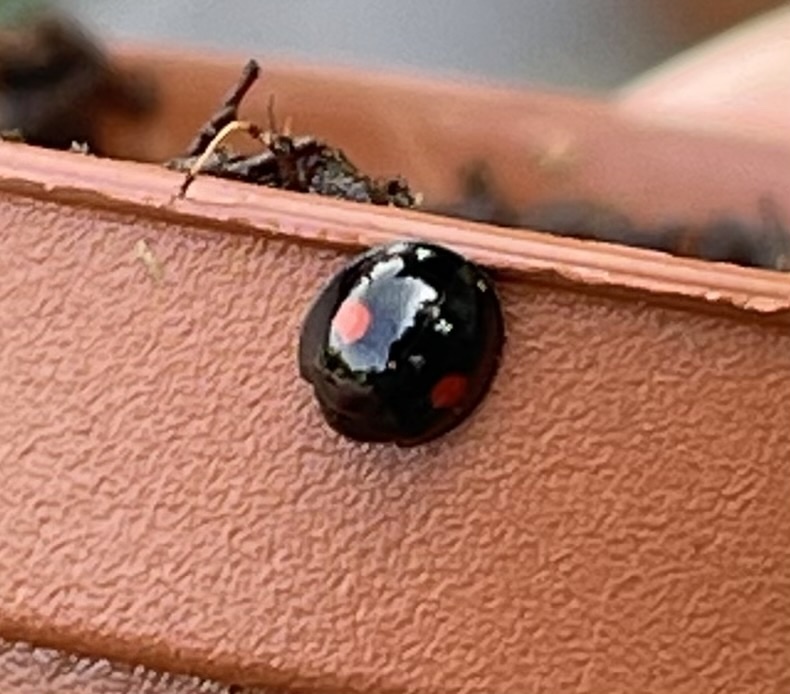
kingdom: Animalia
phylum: Arthropoda
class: Insecta
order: Coleoptera
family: Coccinellidae
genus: Chilocorus
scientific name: Chilocorus stigma
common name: Twicestabbed lady beetle
